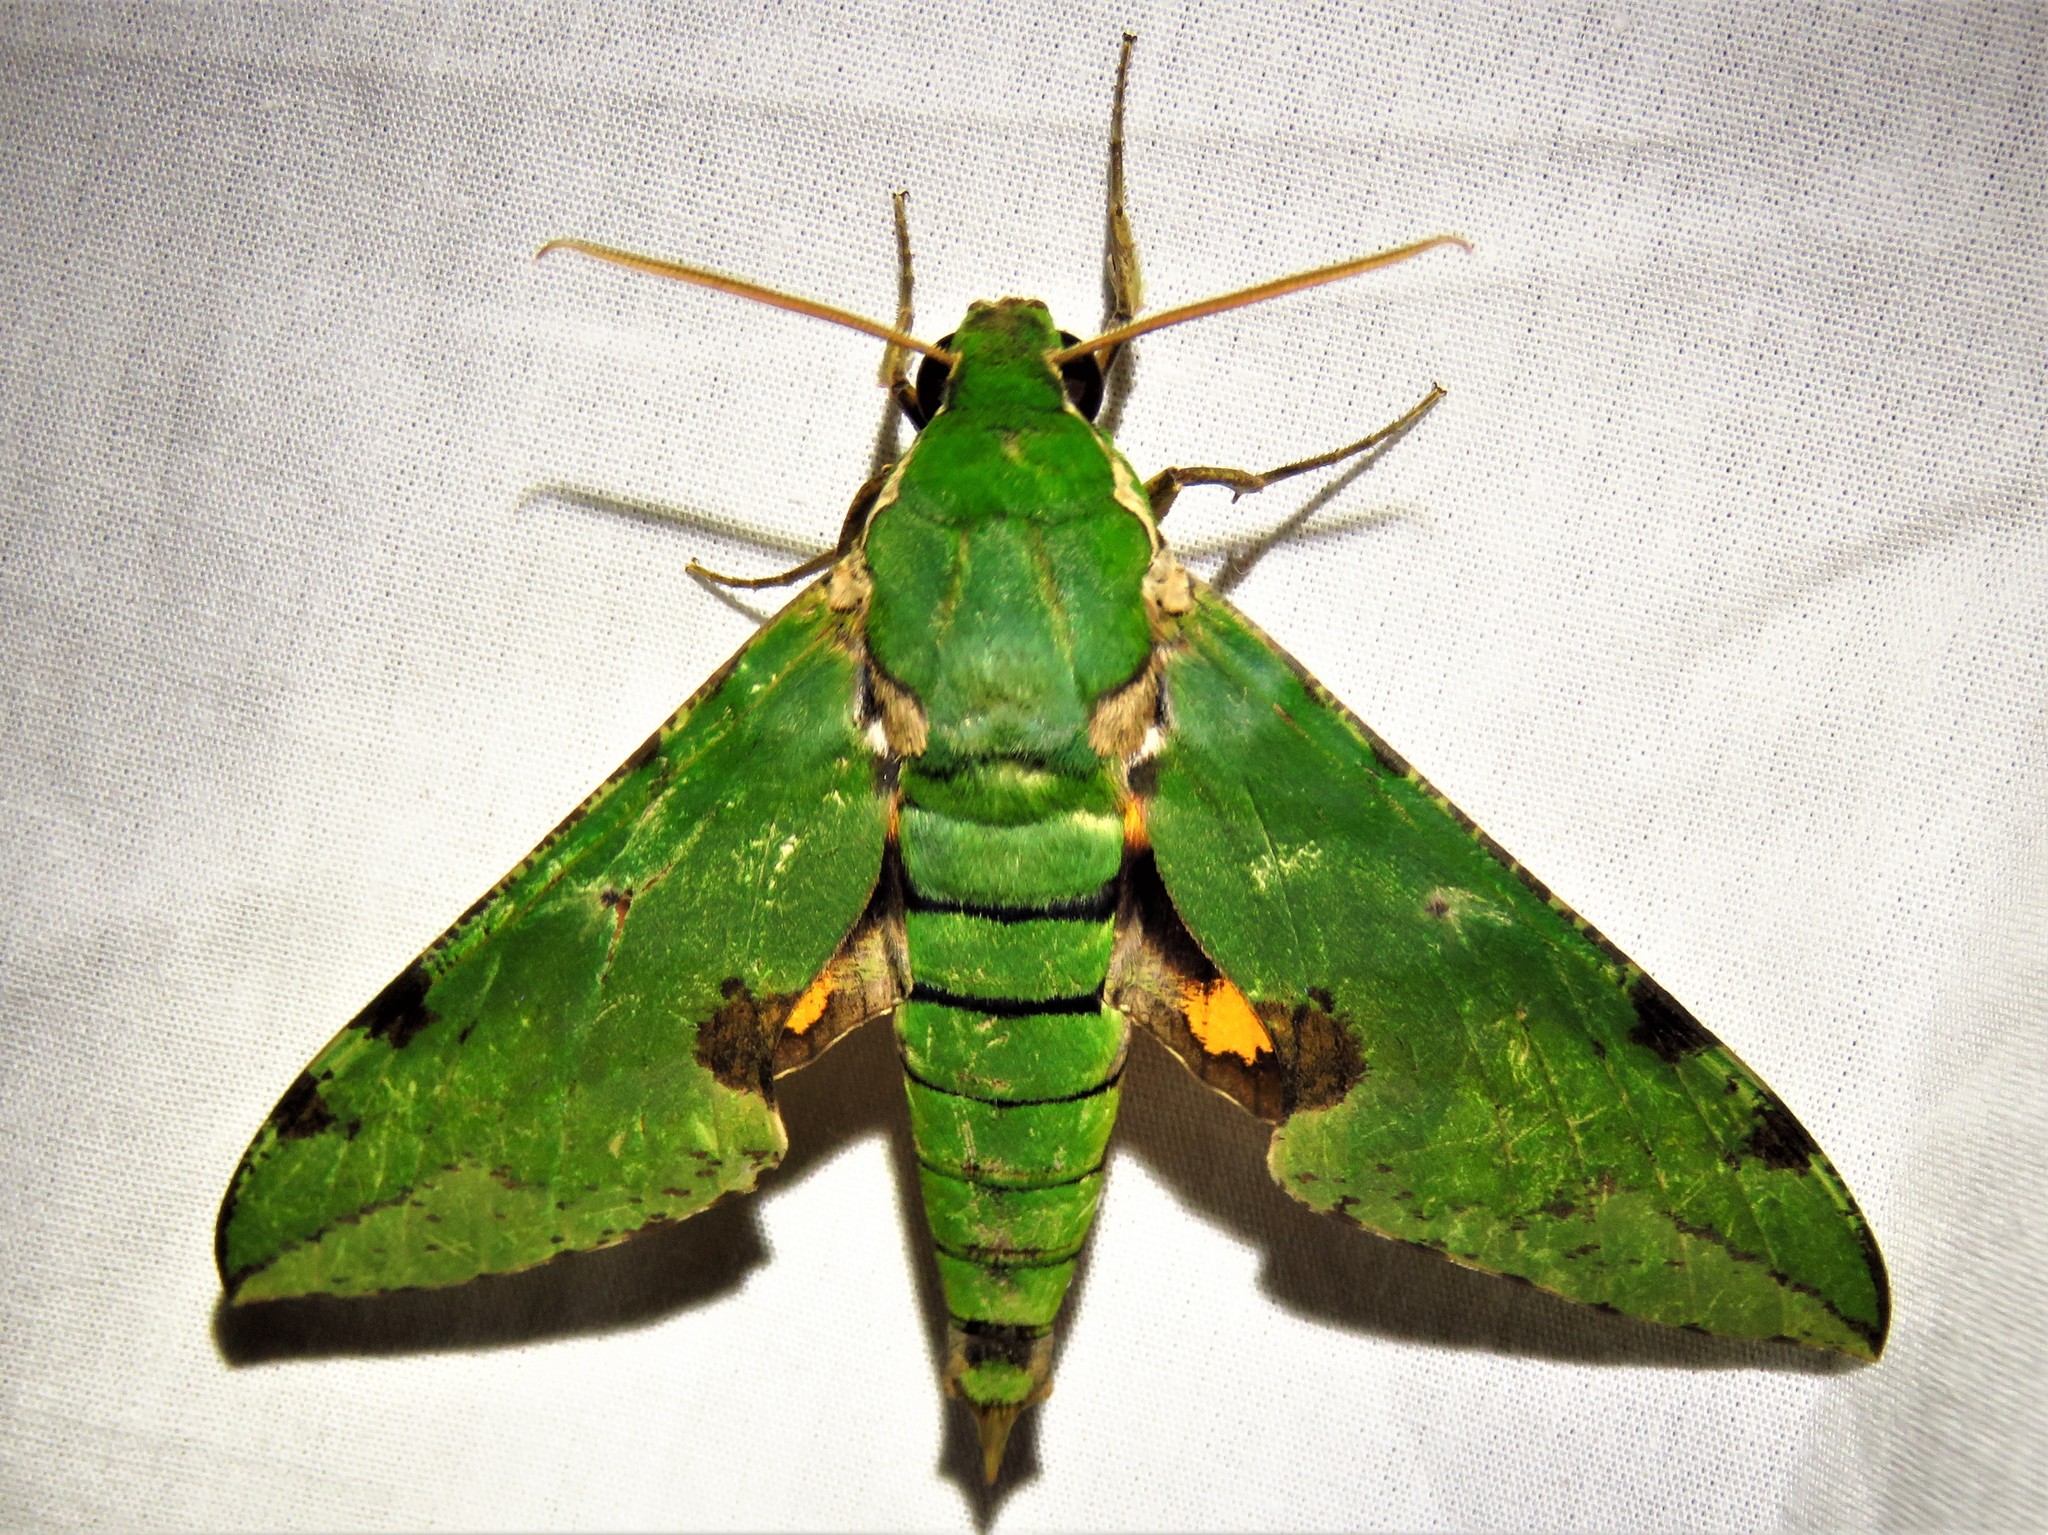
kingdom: Animalia
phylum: Arthropoda
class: Insecta
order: Lepidoptera
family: Sphingidae
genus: Euchloron
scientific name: Euchloron megaera
